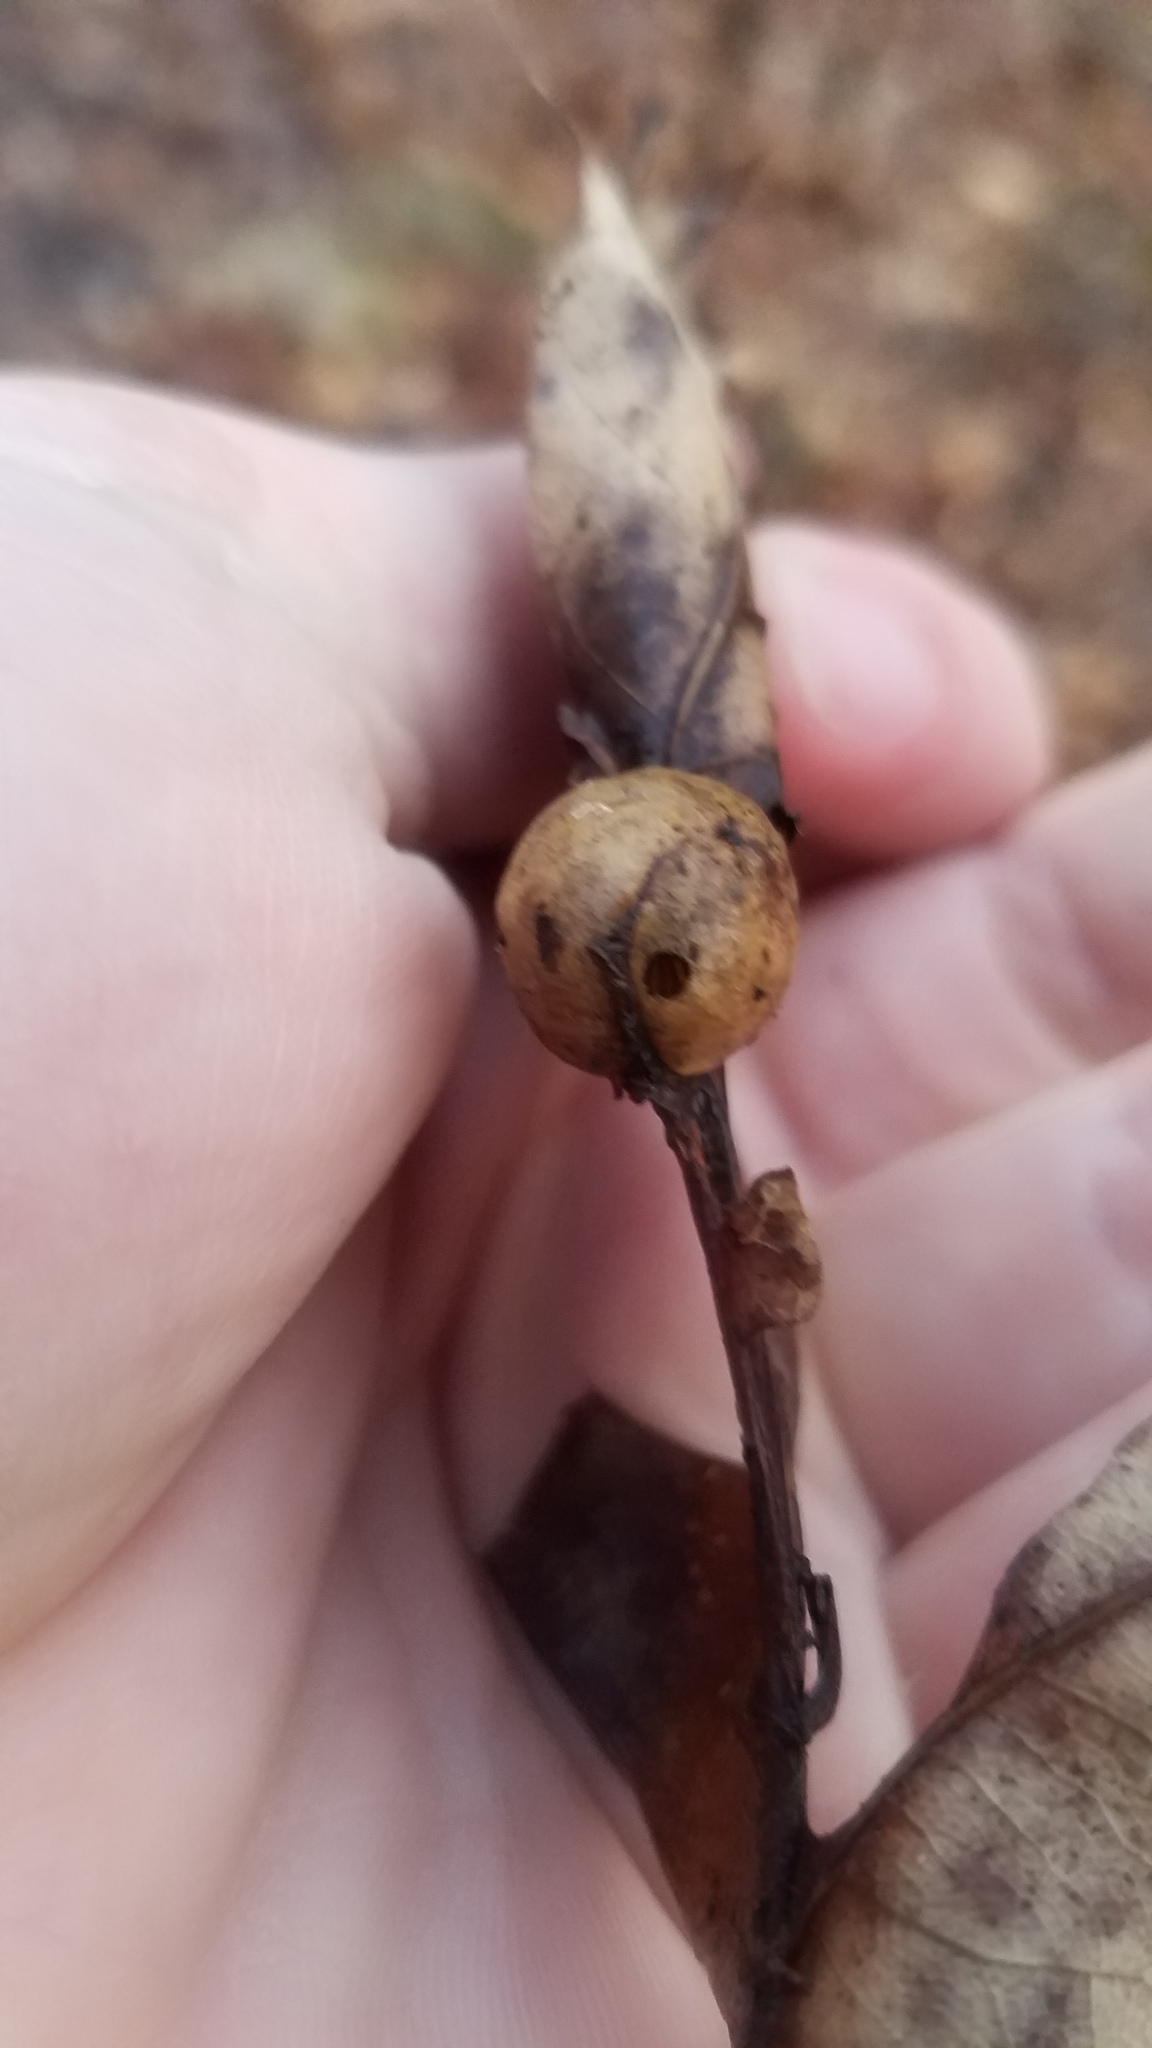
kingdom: Animalia
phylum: Arthropoda
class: Insecta
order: Hymenoptera
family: Cynipidae
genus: Amphibolips
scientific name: Amphibolips
